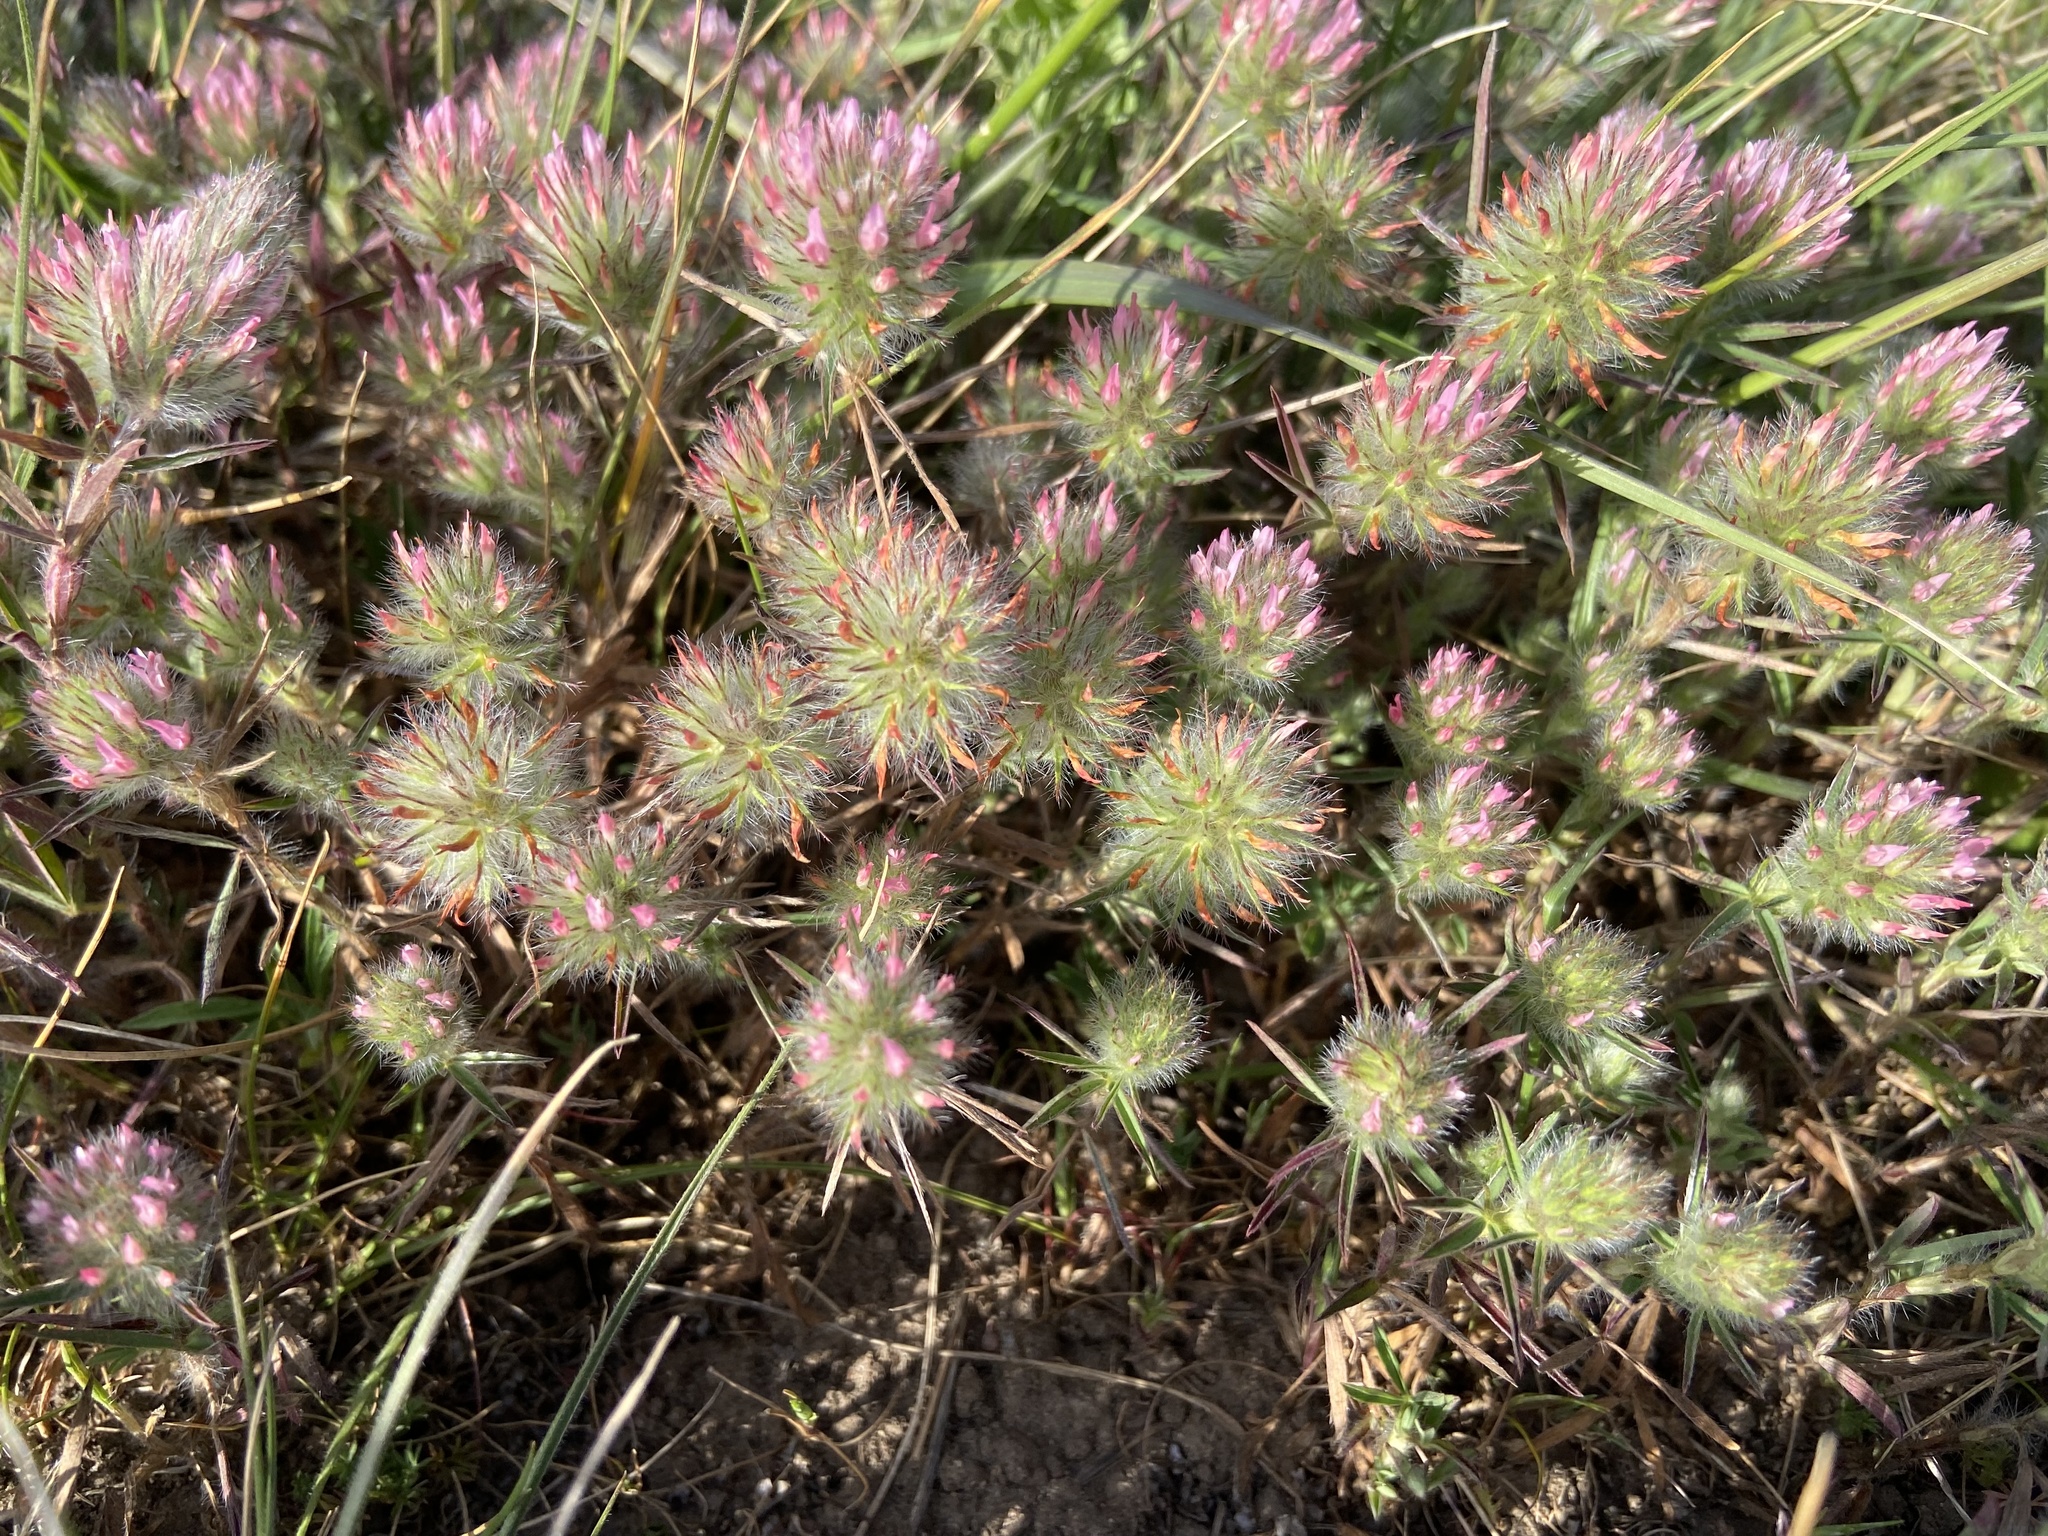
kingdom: Plantae
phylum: Tracheophyta
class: Magnoliopsida
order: Fabales
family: Fabaceae
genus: Trifolium
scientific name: Trifolium angustifolium
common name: Narrow clover
